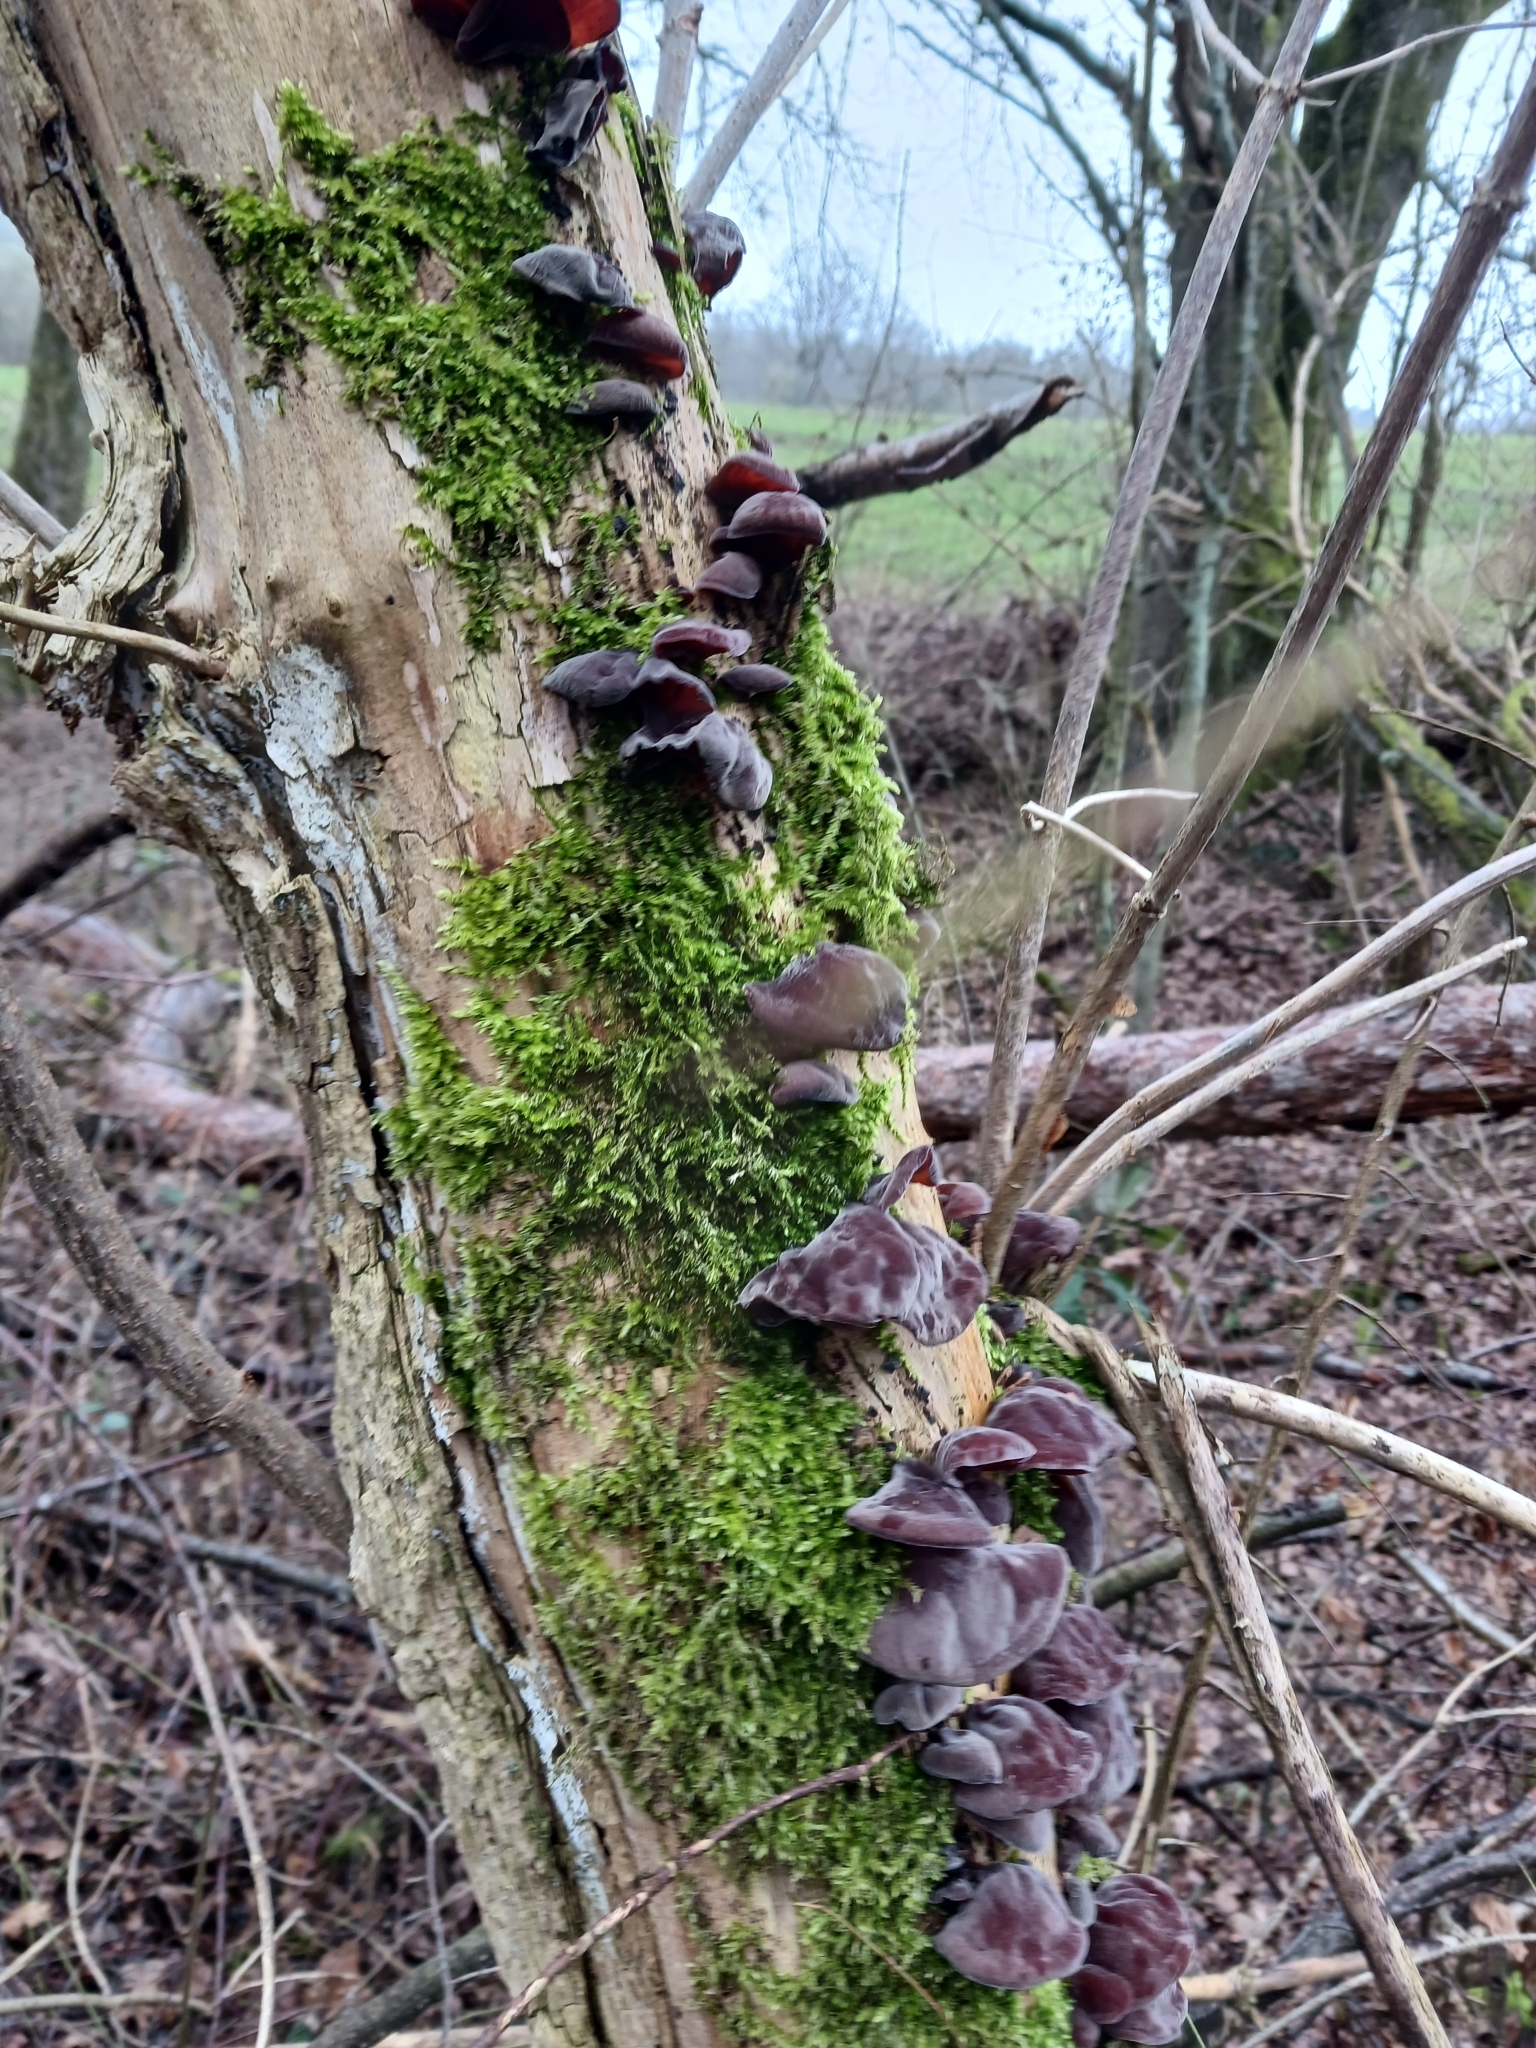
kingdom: Fungi
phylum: Basidiomycota
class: Agaricomycetes
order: Auriculariales
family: Auriculariaceae
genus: Auricularia
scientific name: Auricularia auricula-judae
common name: Jelly ear
